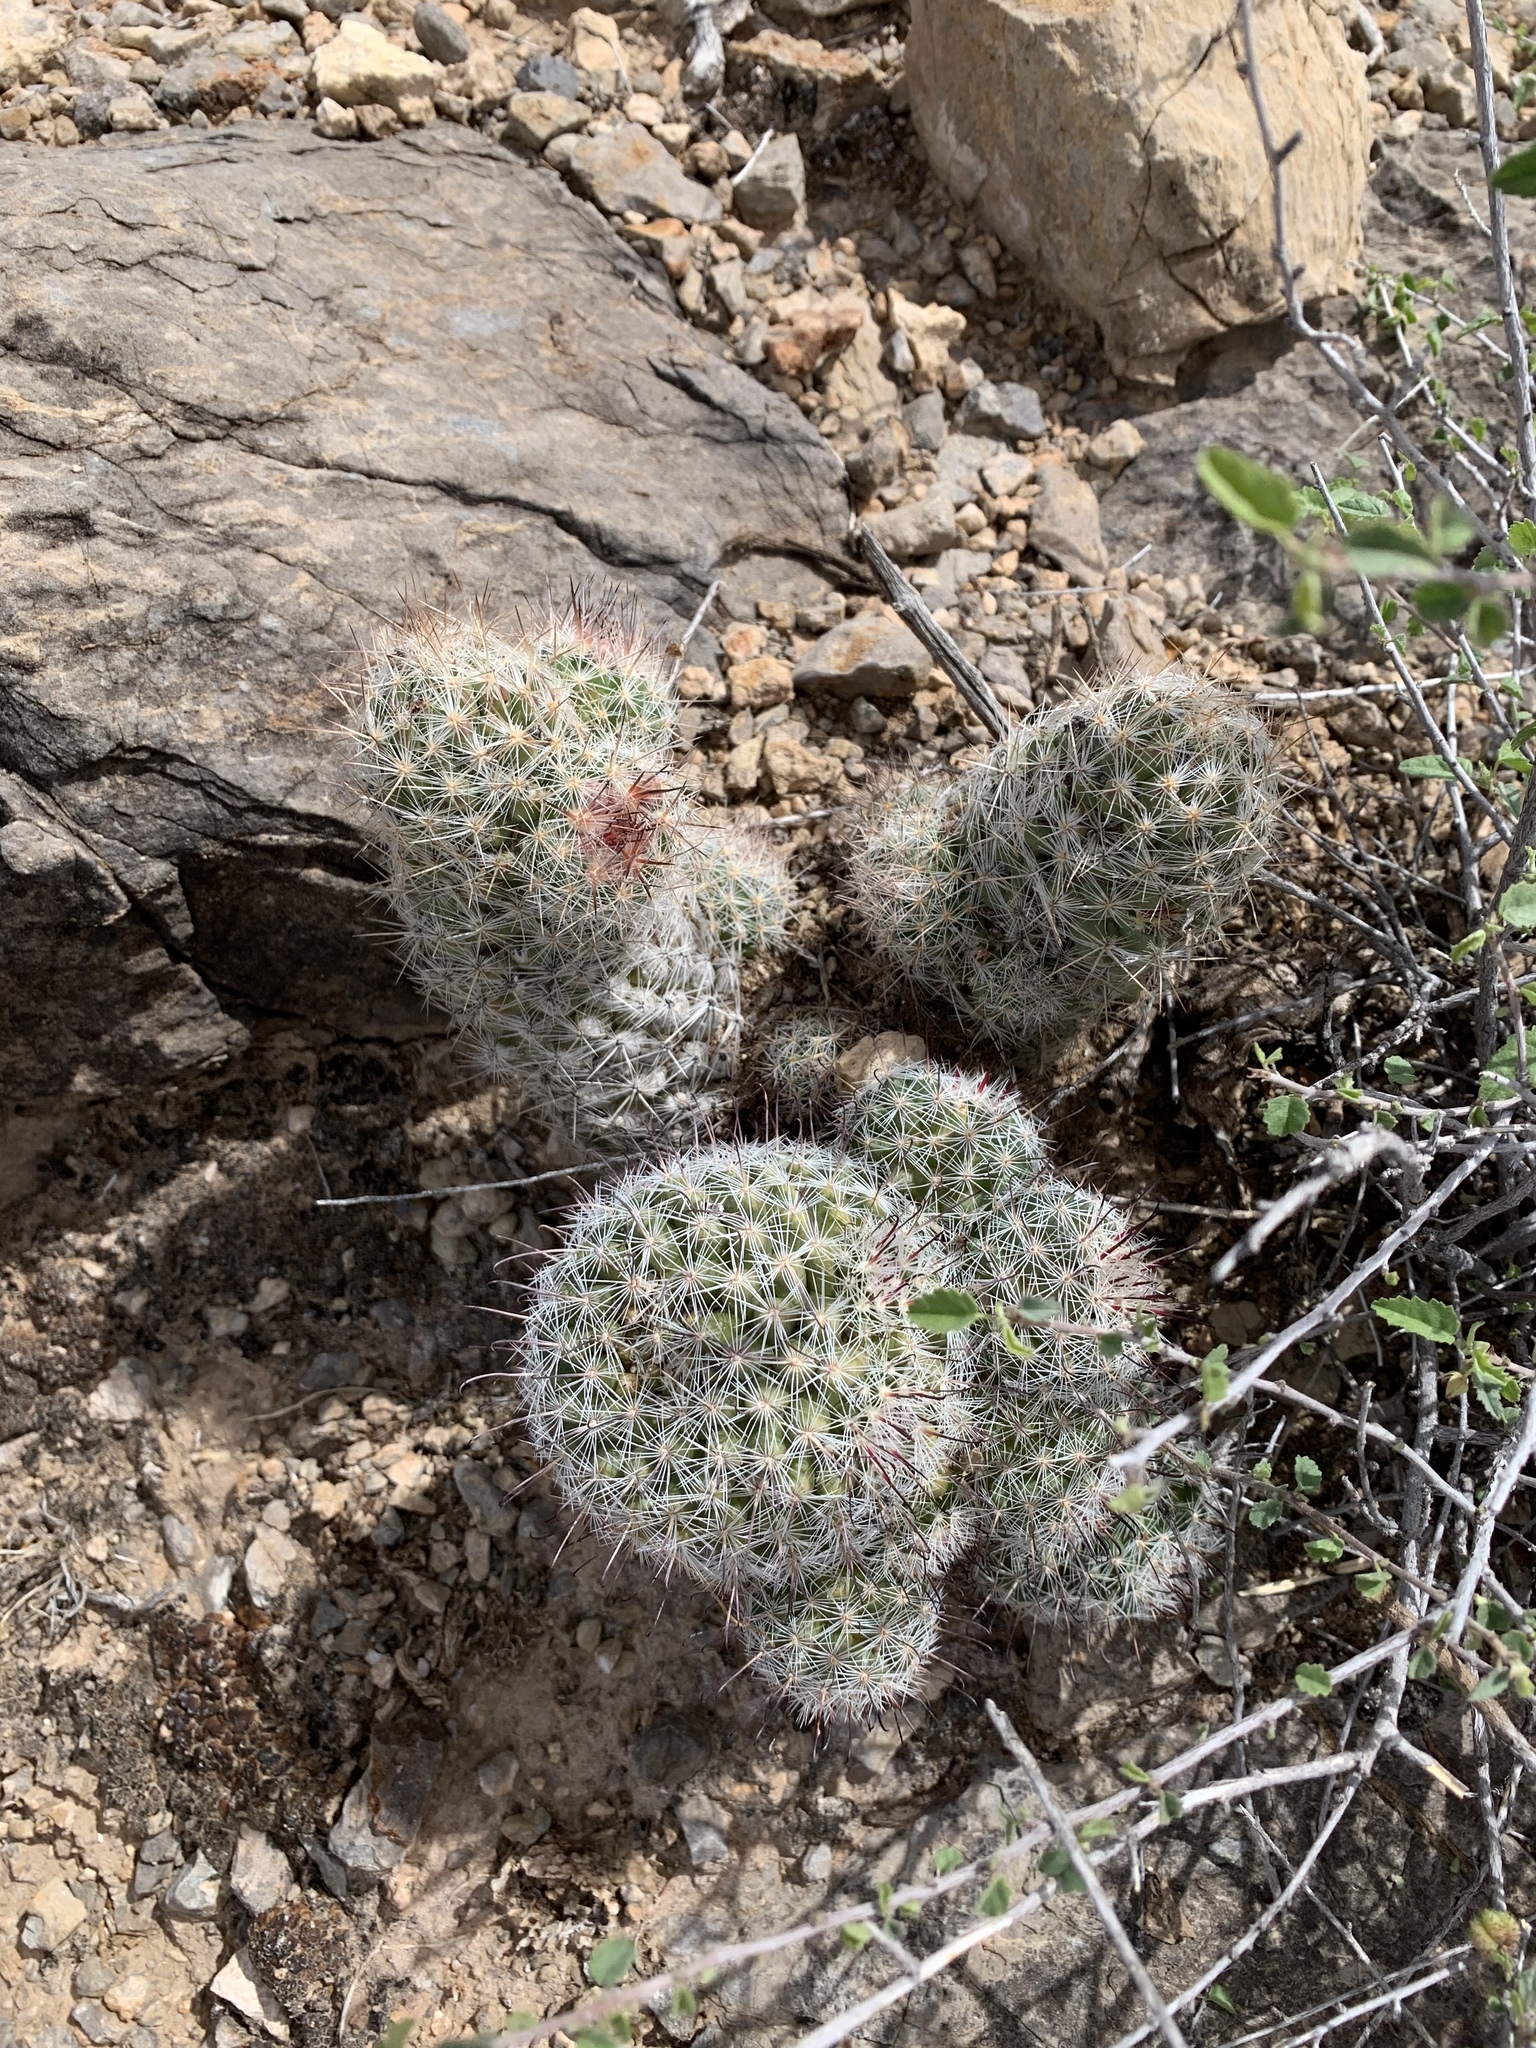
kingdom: Plantae
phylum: Tracheophyta
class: Magnoliopsida
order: Caryophyllales
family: Cactaceae
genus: Pelecyphora
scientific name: Pelecyphora tuberculosa
